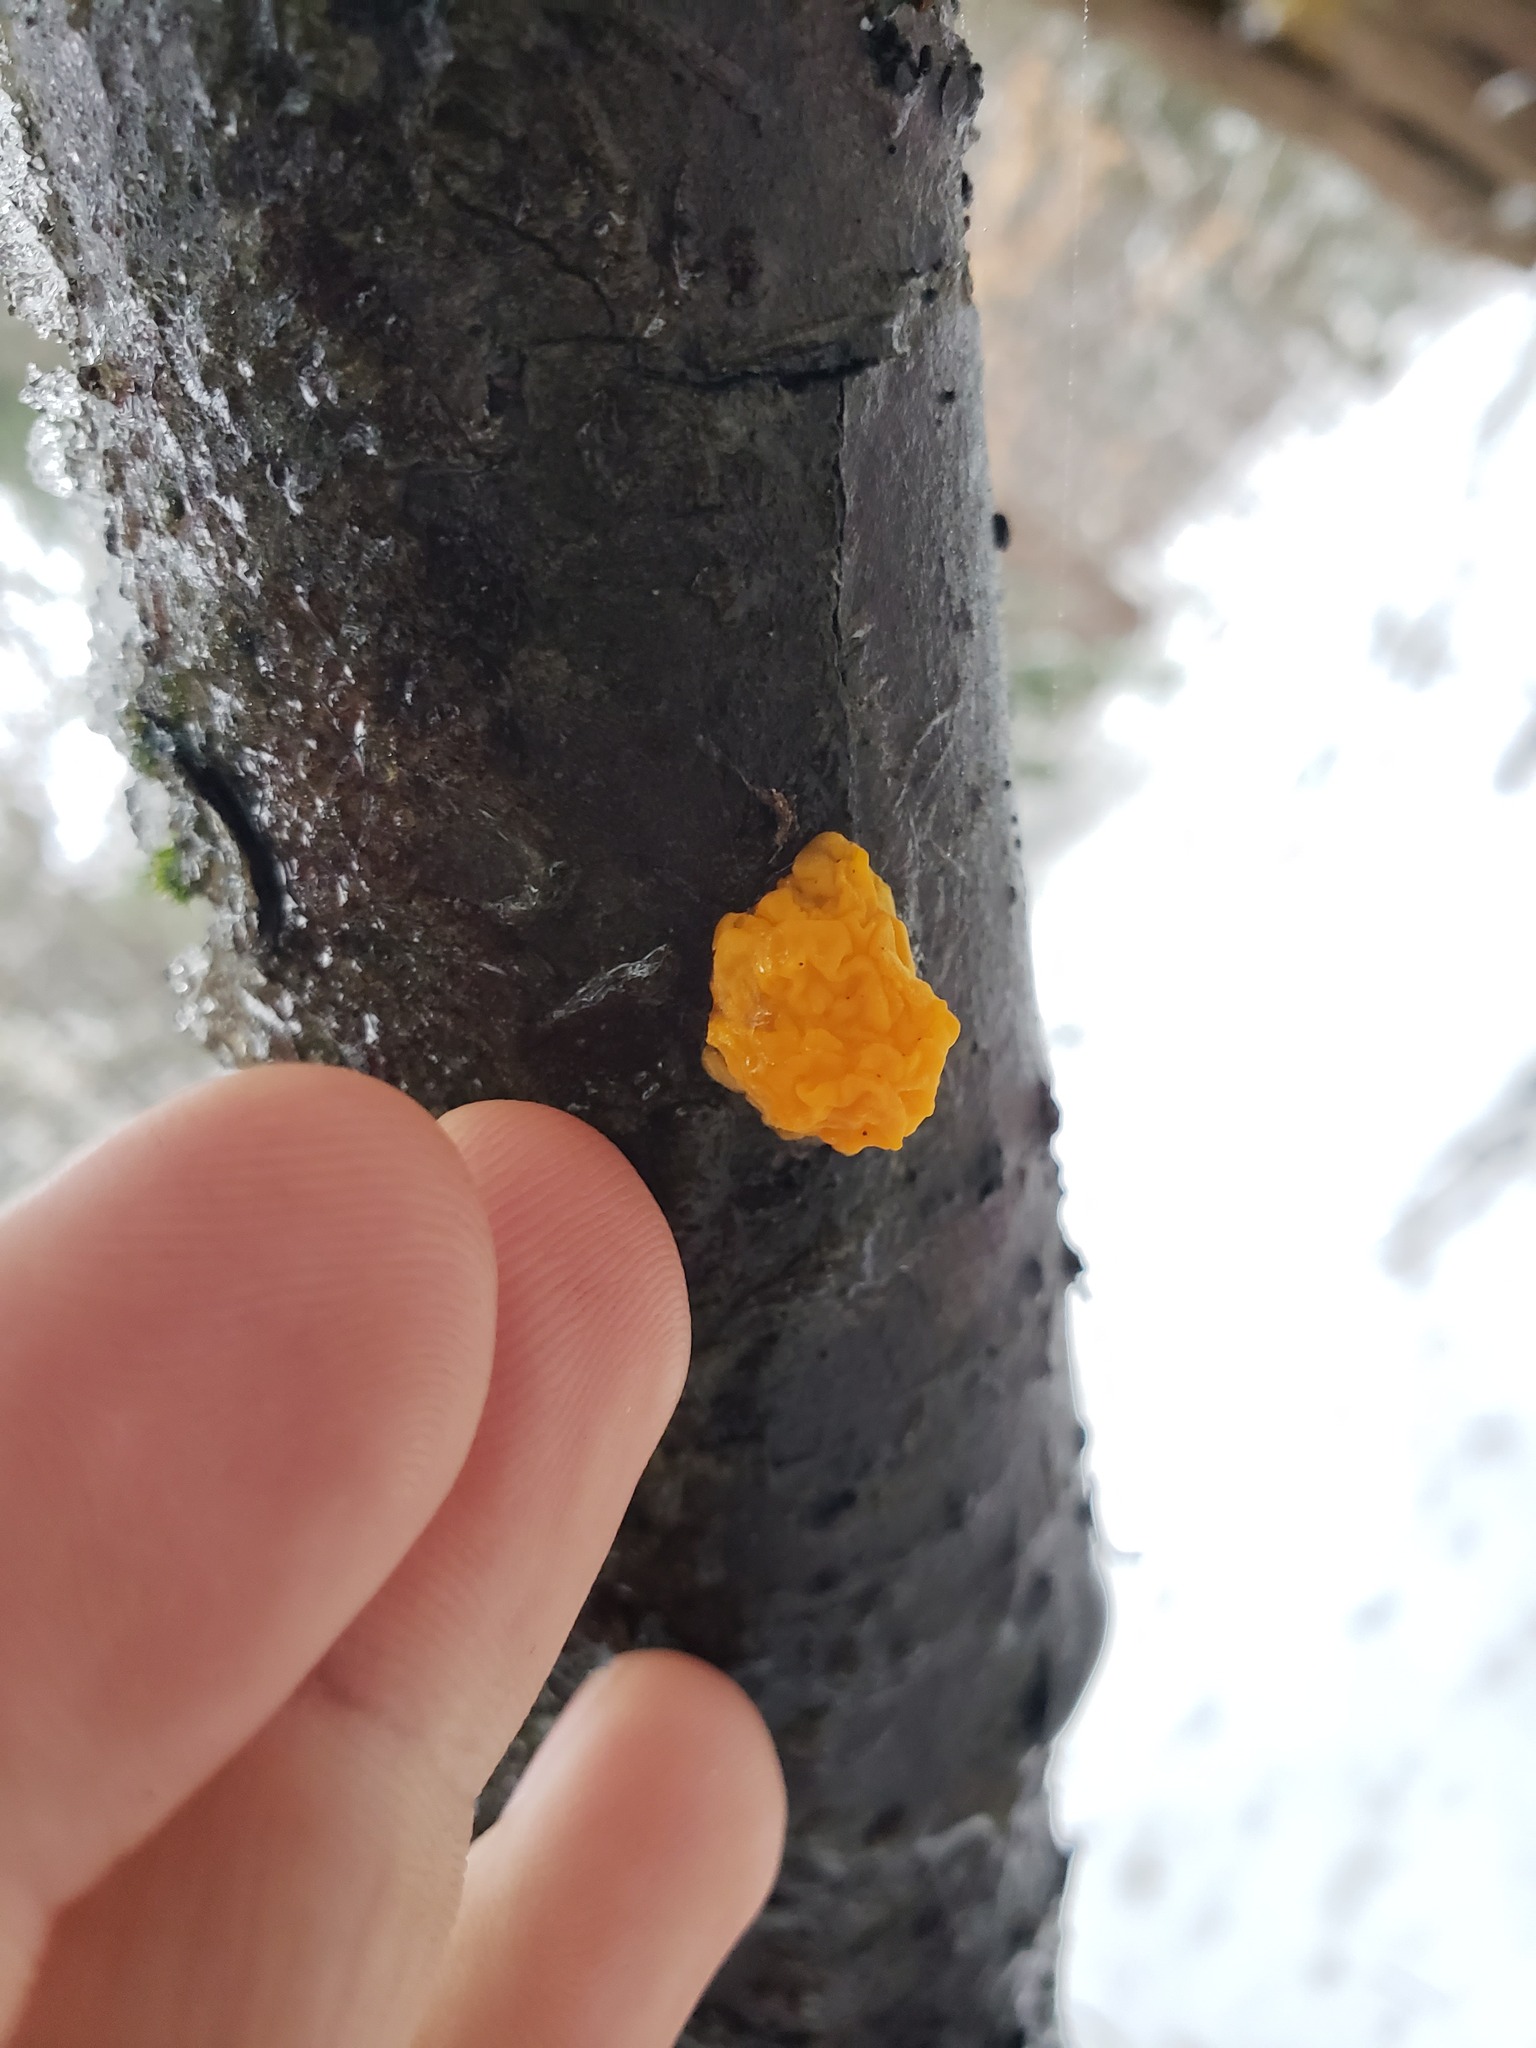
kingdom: Fungi
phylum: Basidiomycota
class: Dacrymycetes
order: Dacrymycetales
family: Dacrymycetaceae
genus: Dacrymyces
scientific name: Dacrymyces chrysospermus
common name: Orange jelly spot
